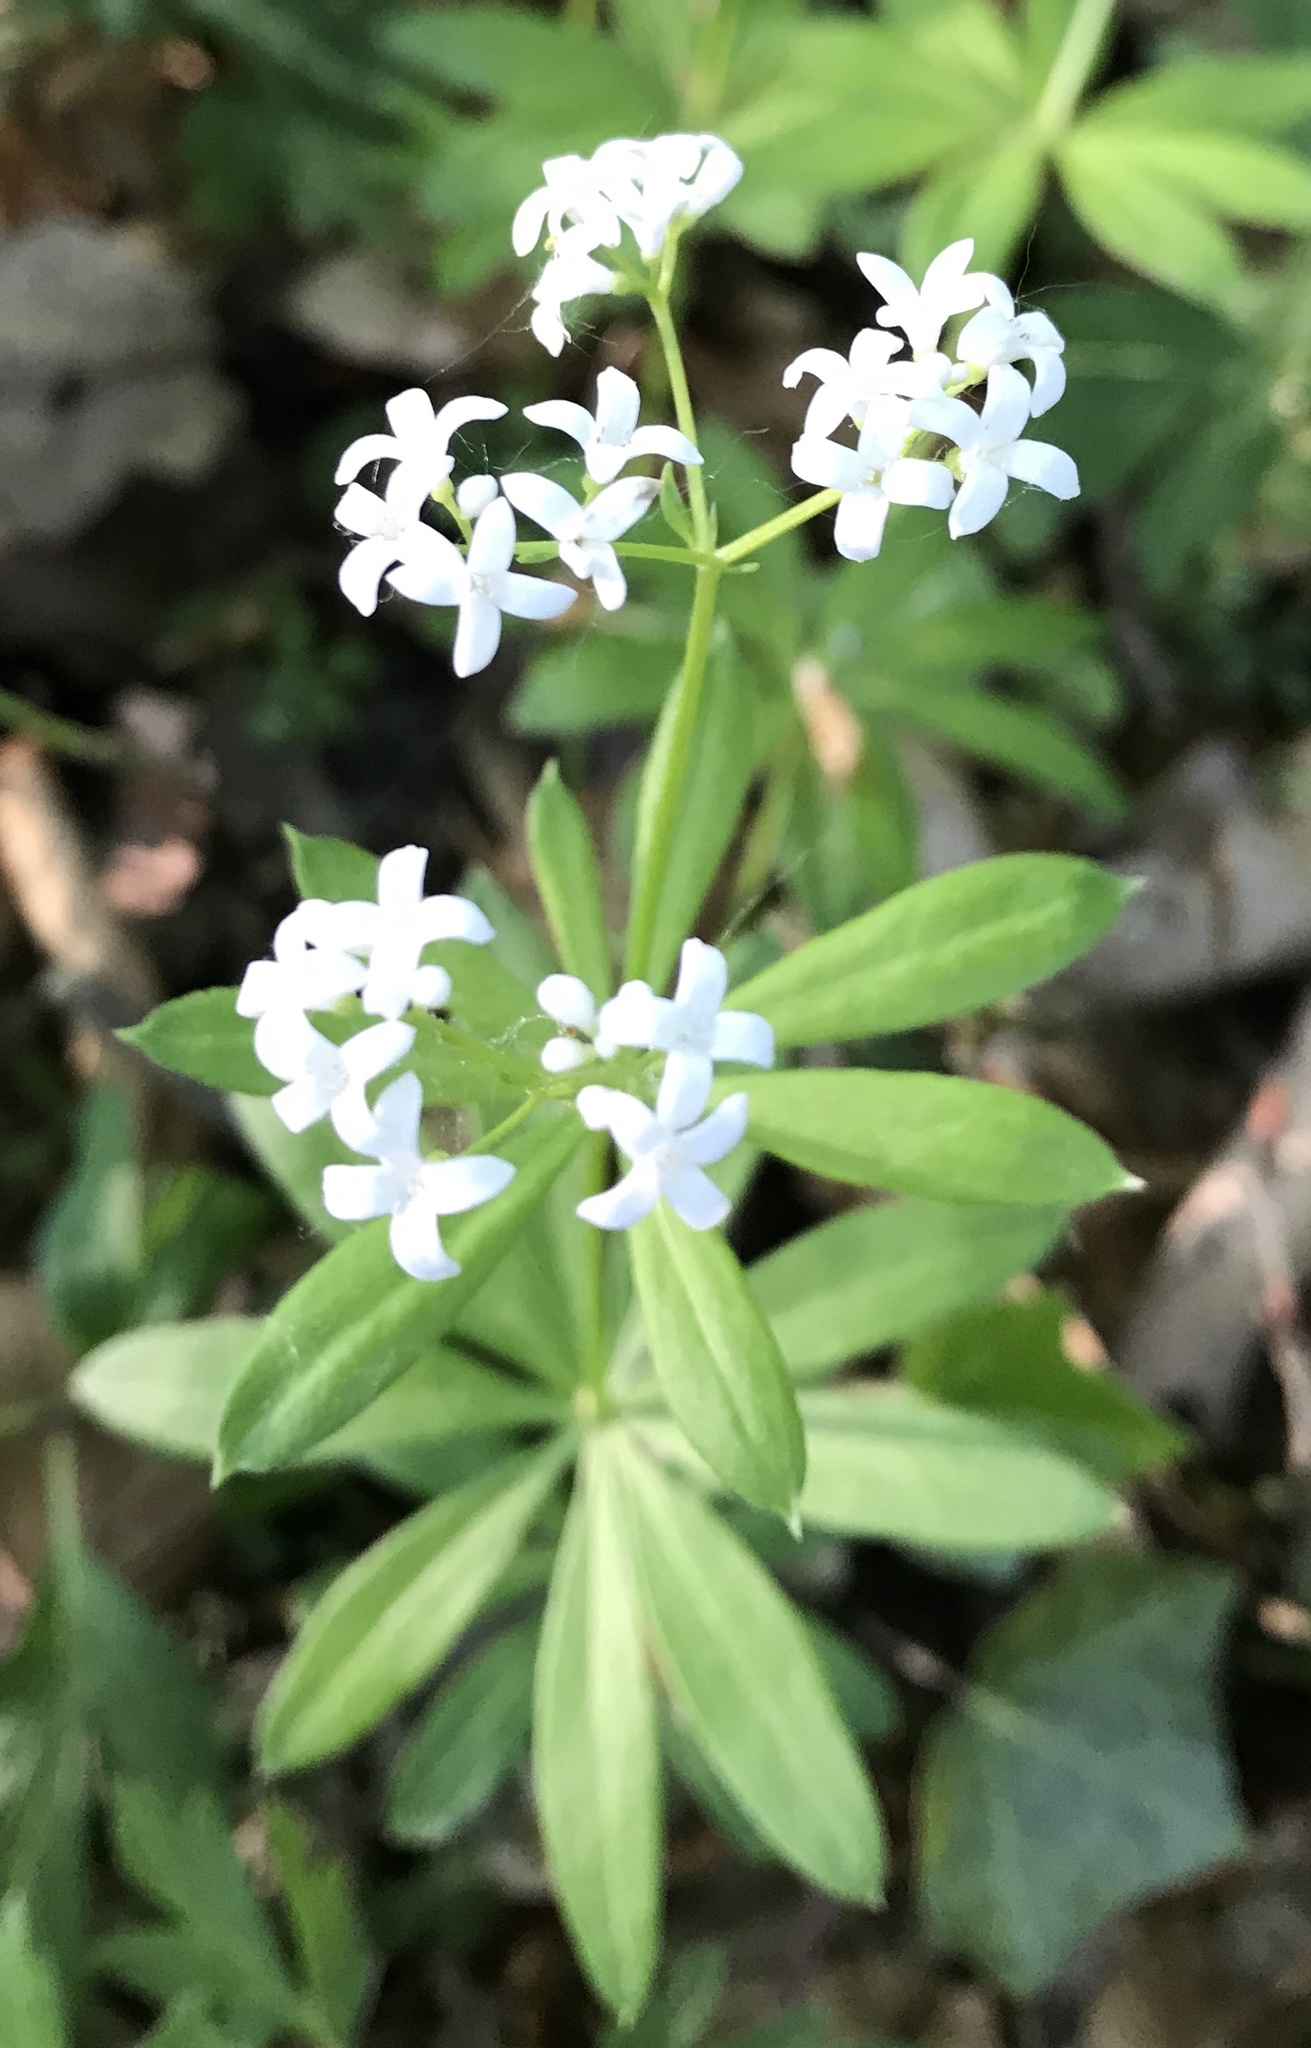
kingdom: Plantae
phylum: Tracheophyta
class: Magnoliopsida
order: Gentianales
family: Rubiaceae
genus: Galium
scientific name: Galium odoratum
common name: Sweet woodruff
